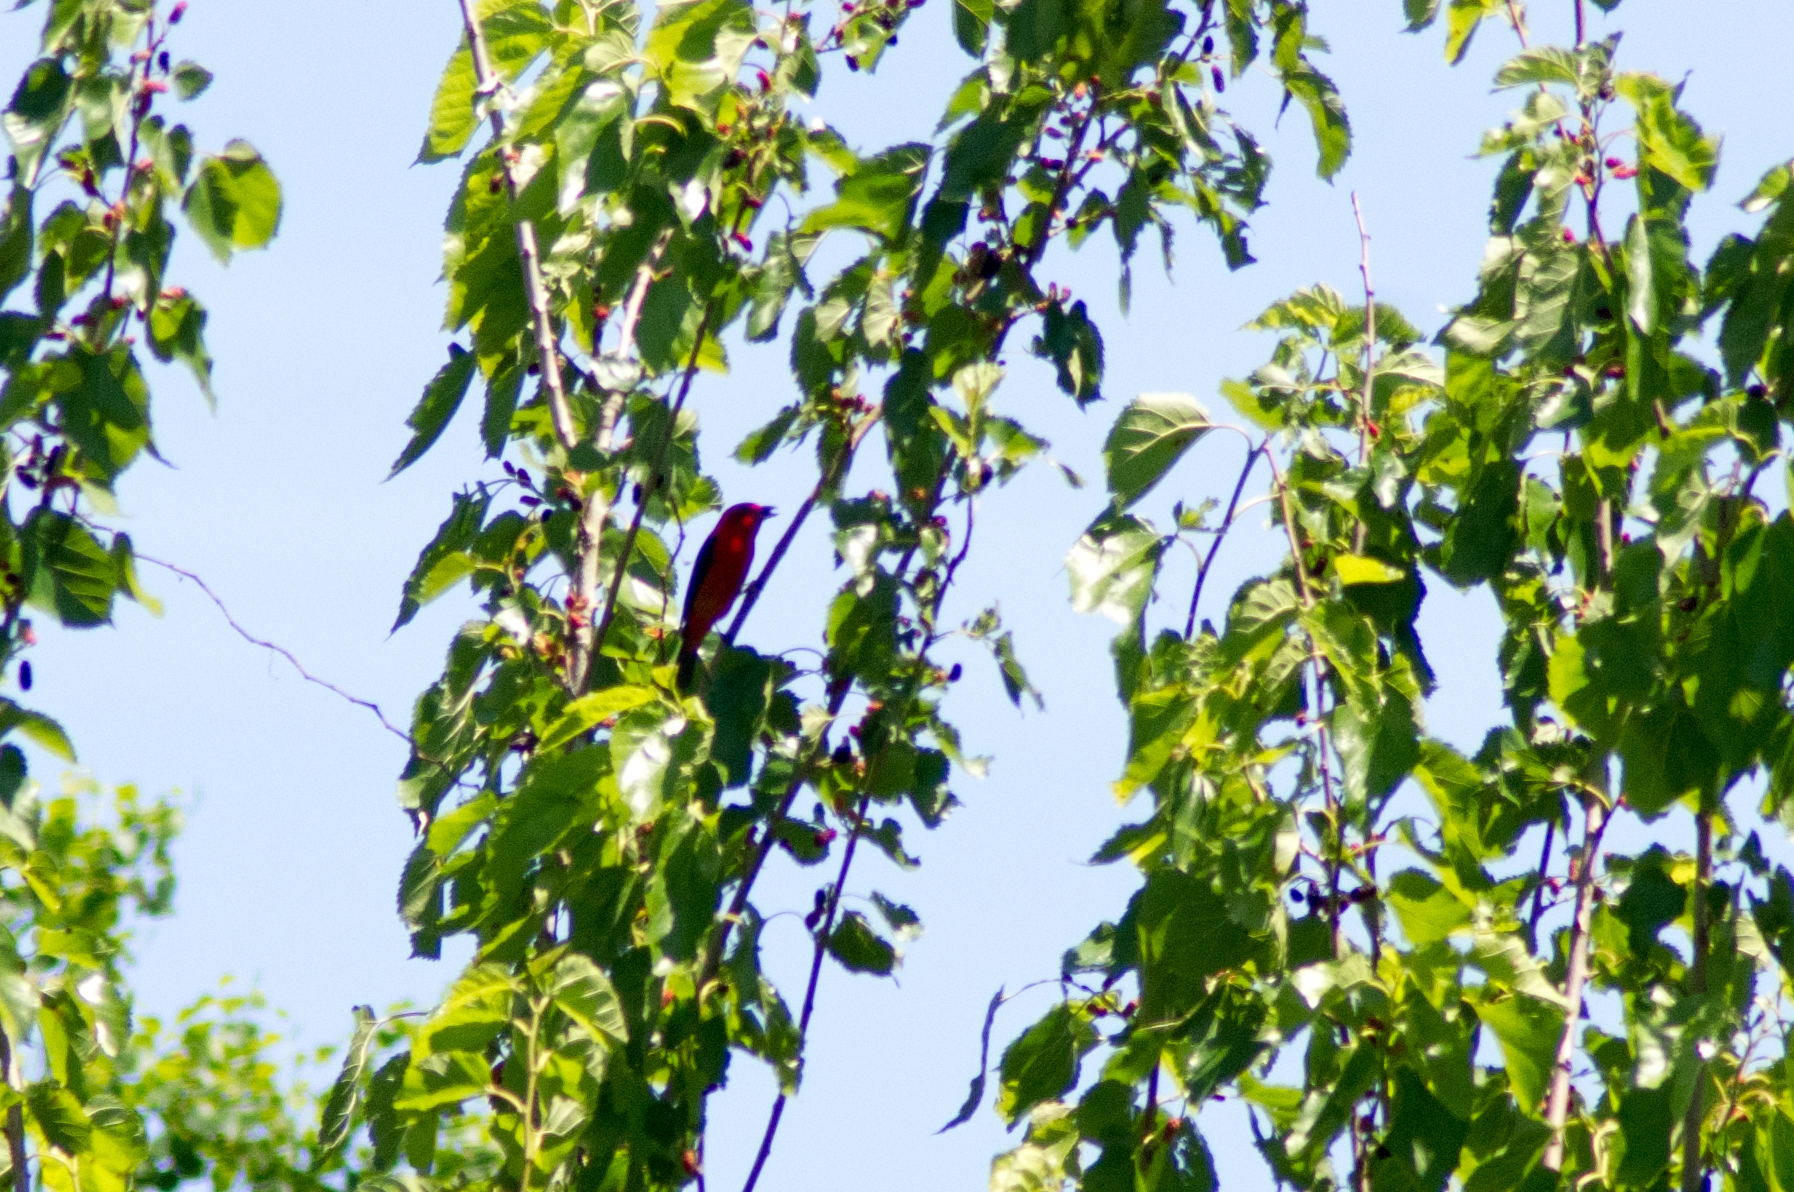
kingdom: Animalia
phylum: Chordata
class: Aves
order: Passeriformes
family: Cardinalidae
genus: Piranga
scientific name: Piranga olivacea
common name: Scarlet tanager
